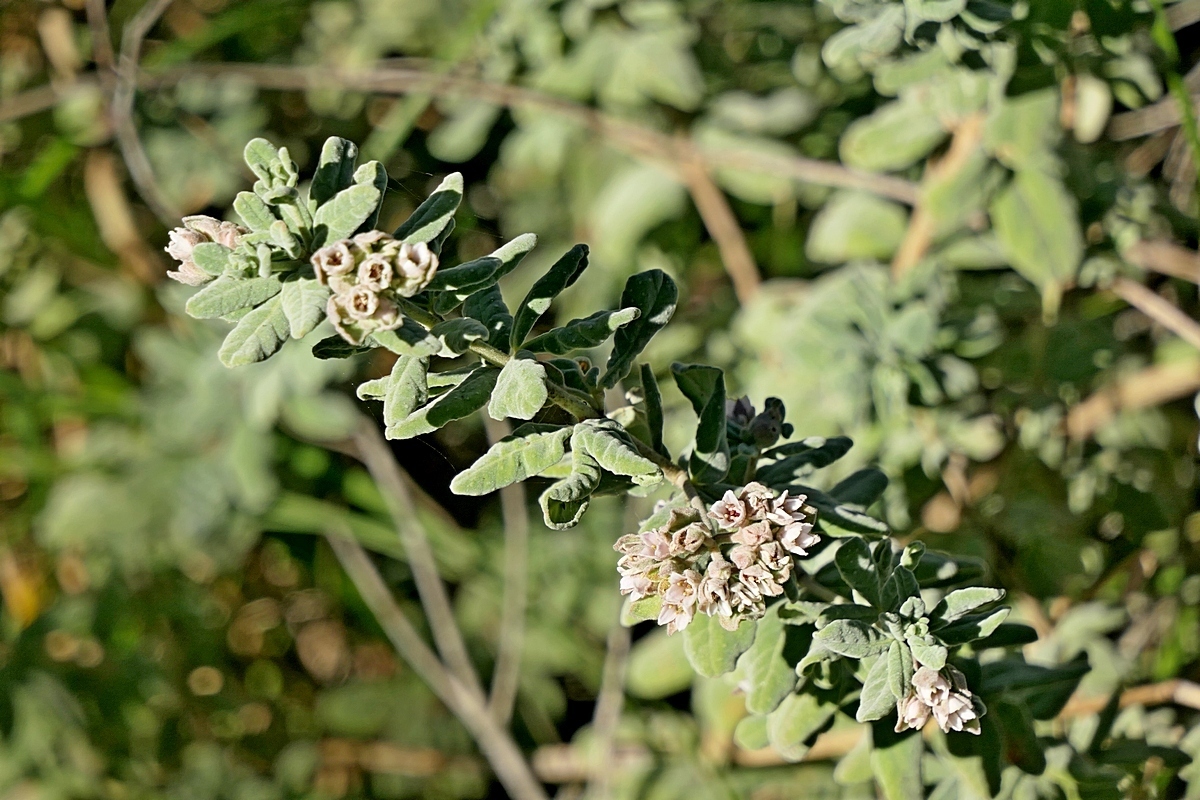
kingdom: Plantae
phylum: Tracheophyta
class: Magnoliopsida
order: Sapindales
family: Rutaceae
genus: Zieria
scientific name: Zieria littoralis
